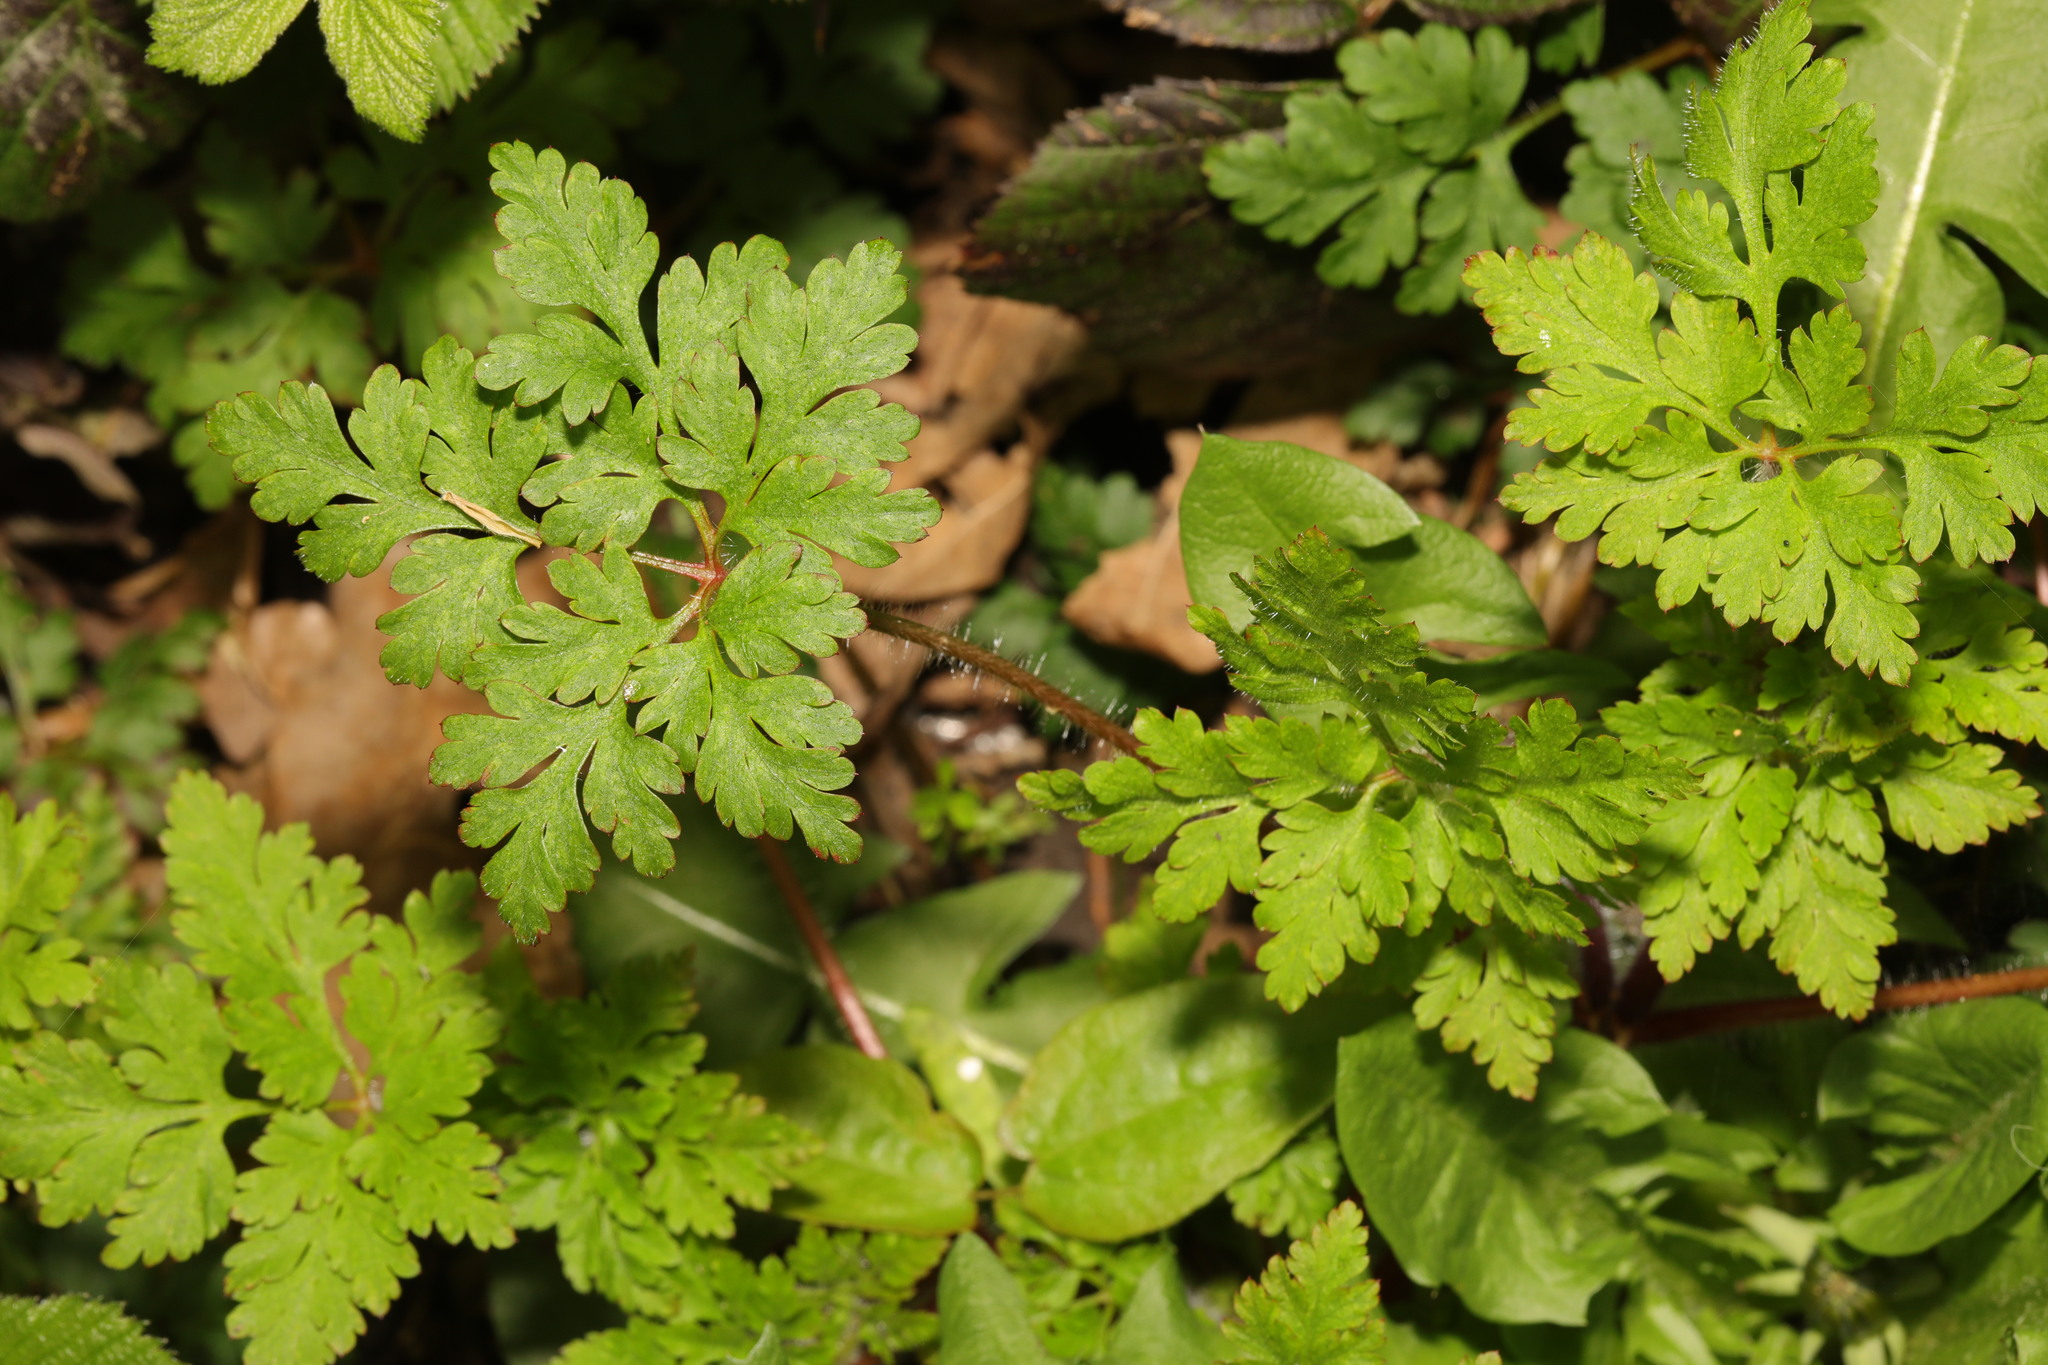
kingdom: Plantae
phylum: Tracheophyta
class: Magnoliopsida
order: Geraniales
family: Geraniaceae
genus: Geranium
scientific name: Geranium robertianum
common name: Herb-robert
